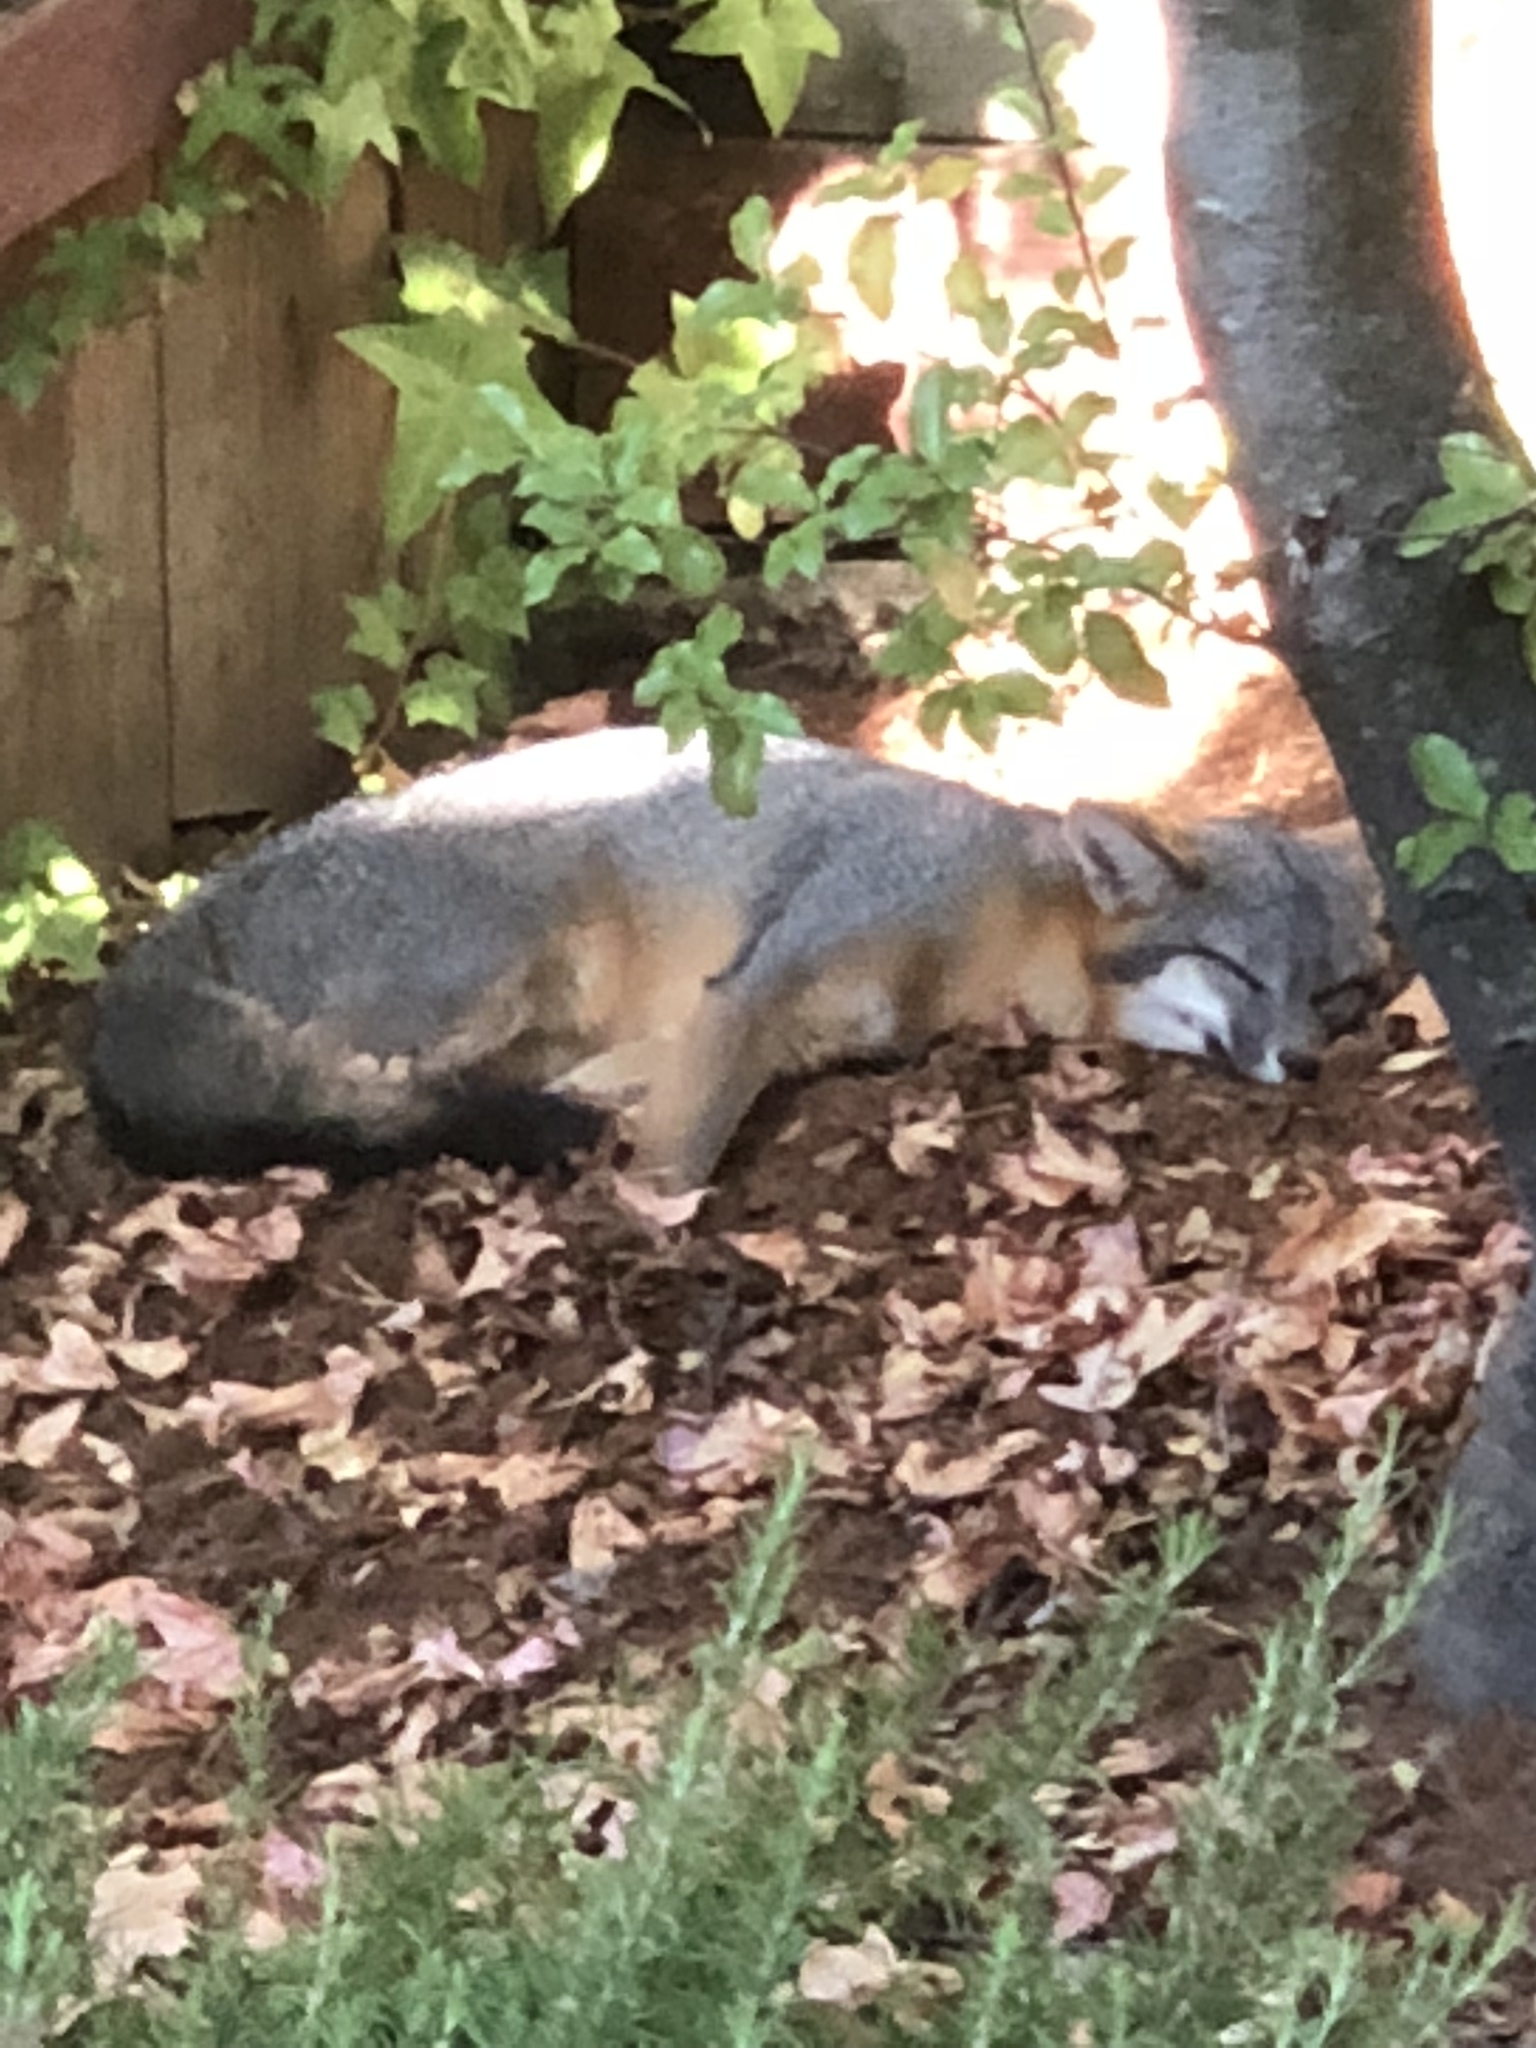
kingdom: Animalia
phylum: Chordata
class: Mammalia
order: Carnivora
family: Canidae
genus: Urocyon
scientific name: Urocyon cinereoargenteus
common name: Gray fox
